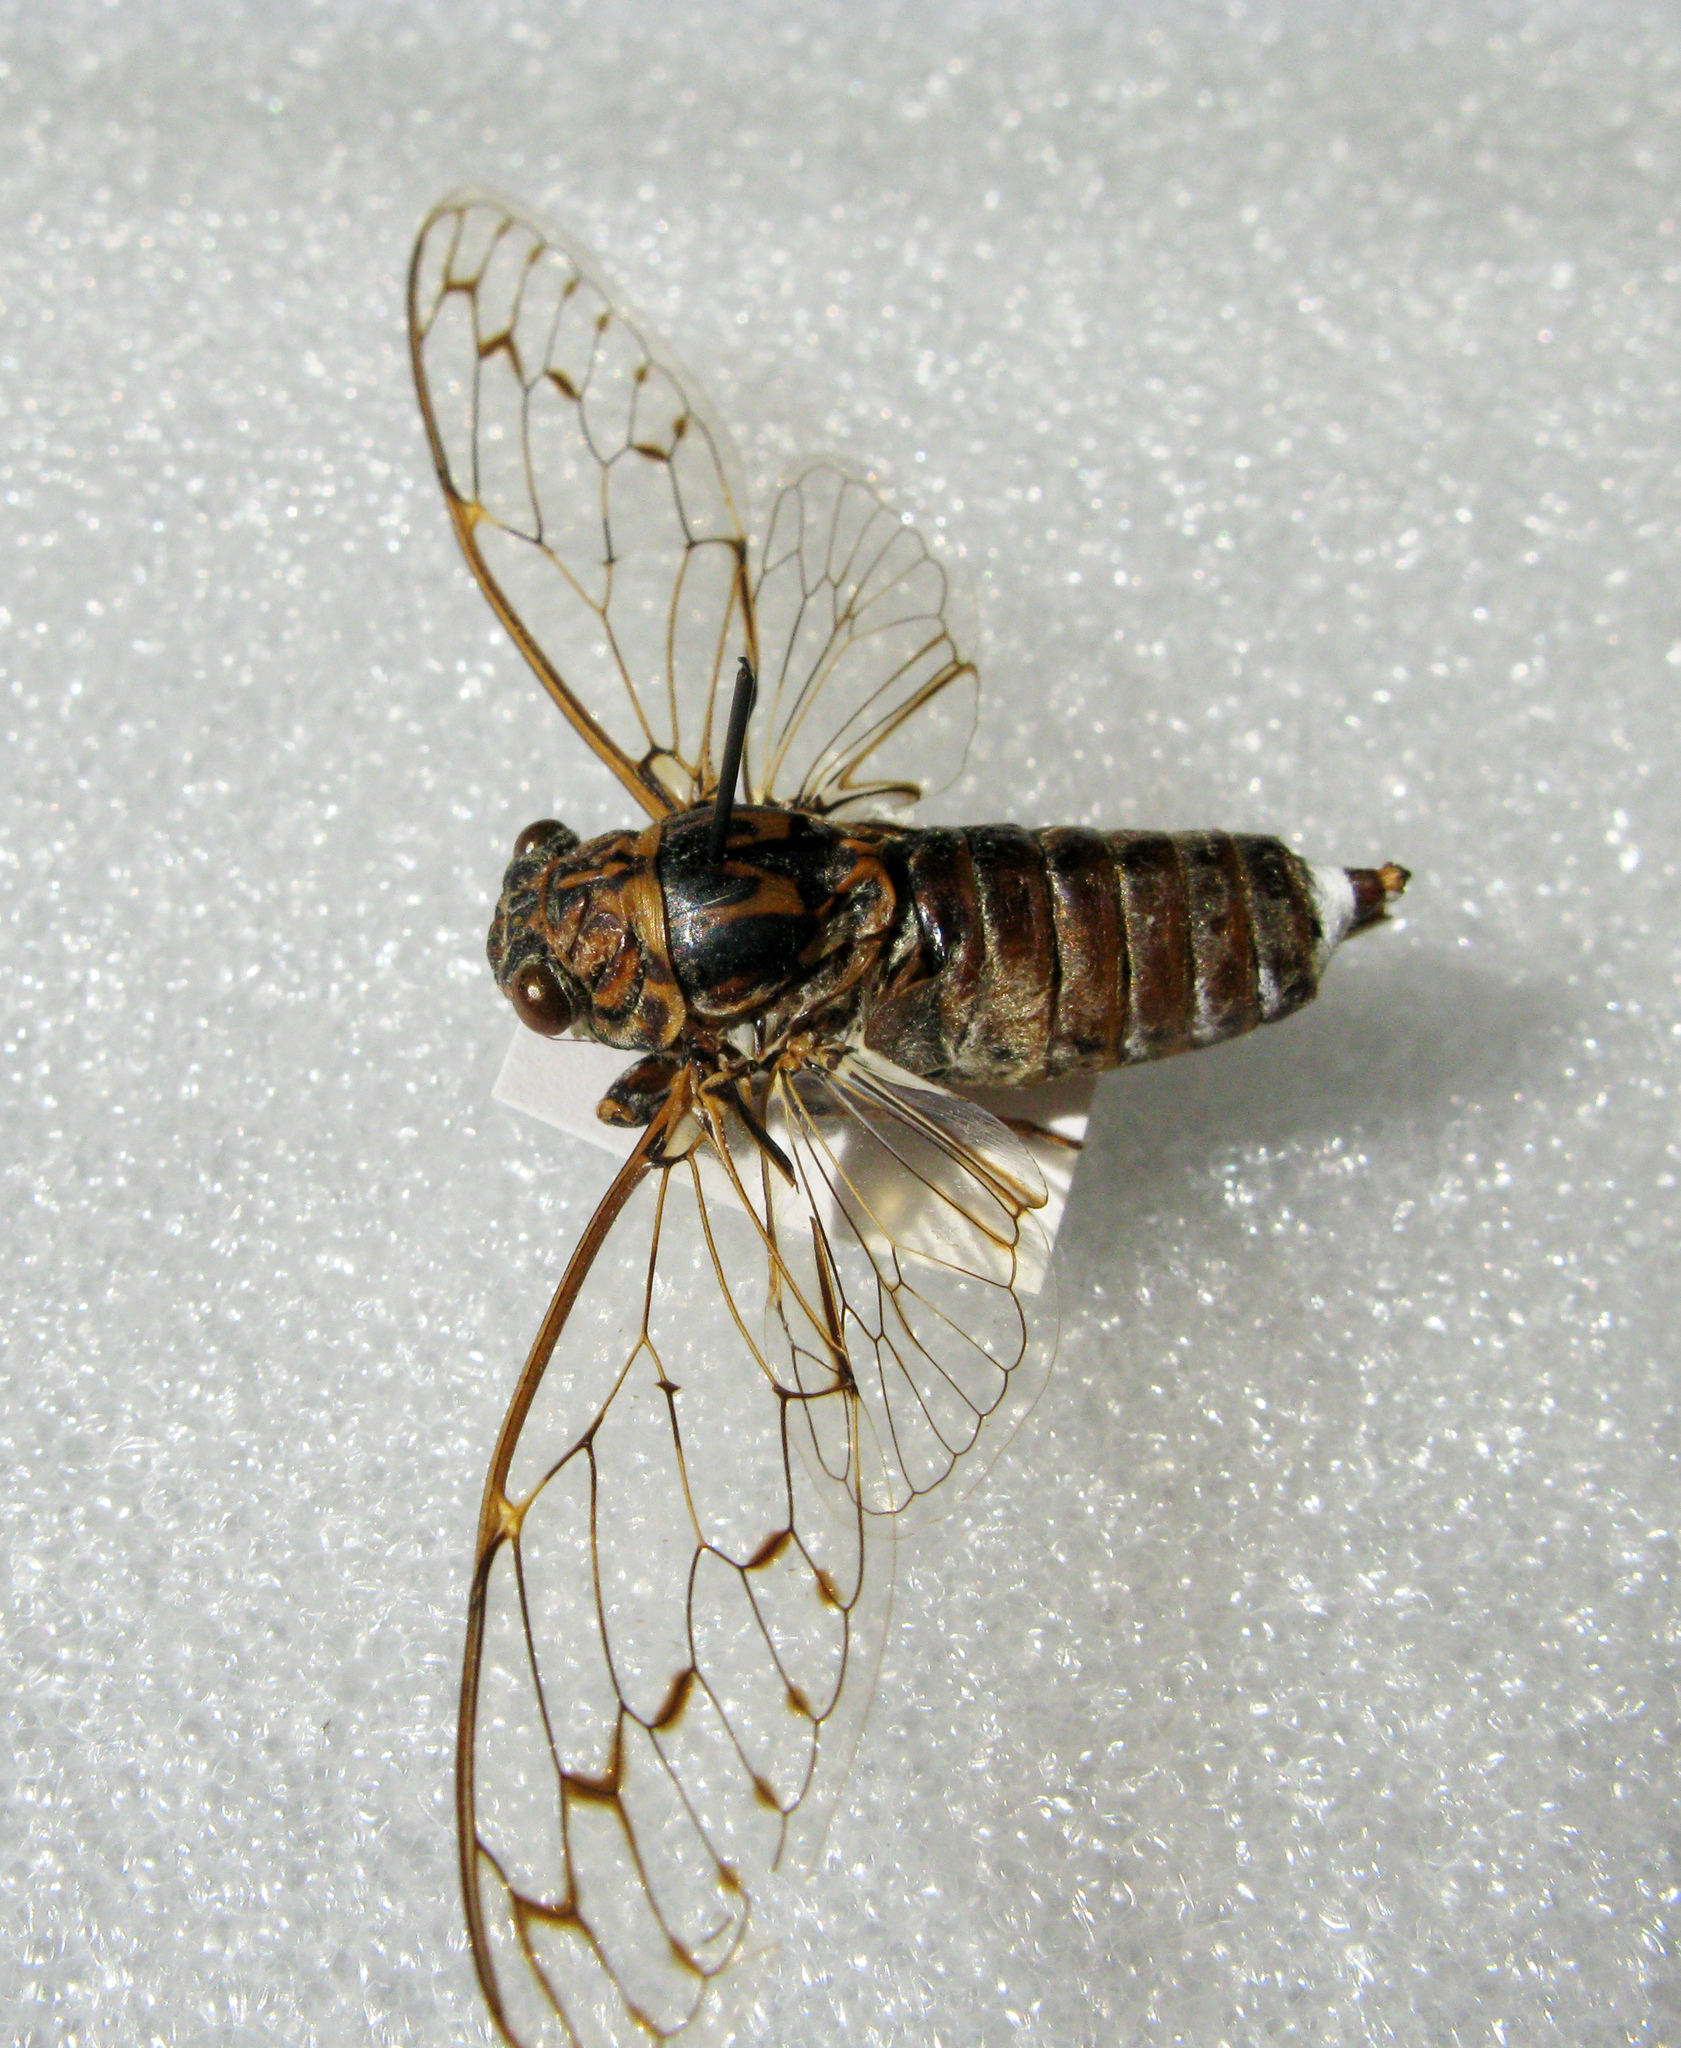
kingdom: Animalia
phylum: Arthropoda
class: Insecta
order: Hemiptera
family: Cicadidae
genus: Cicada
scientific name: Cicada orni
